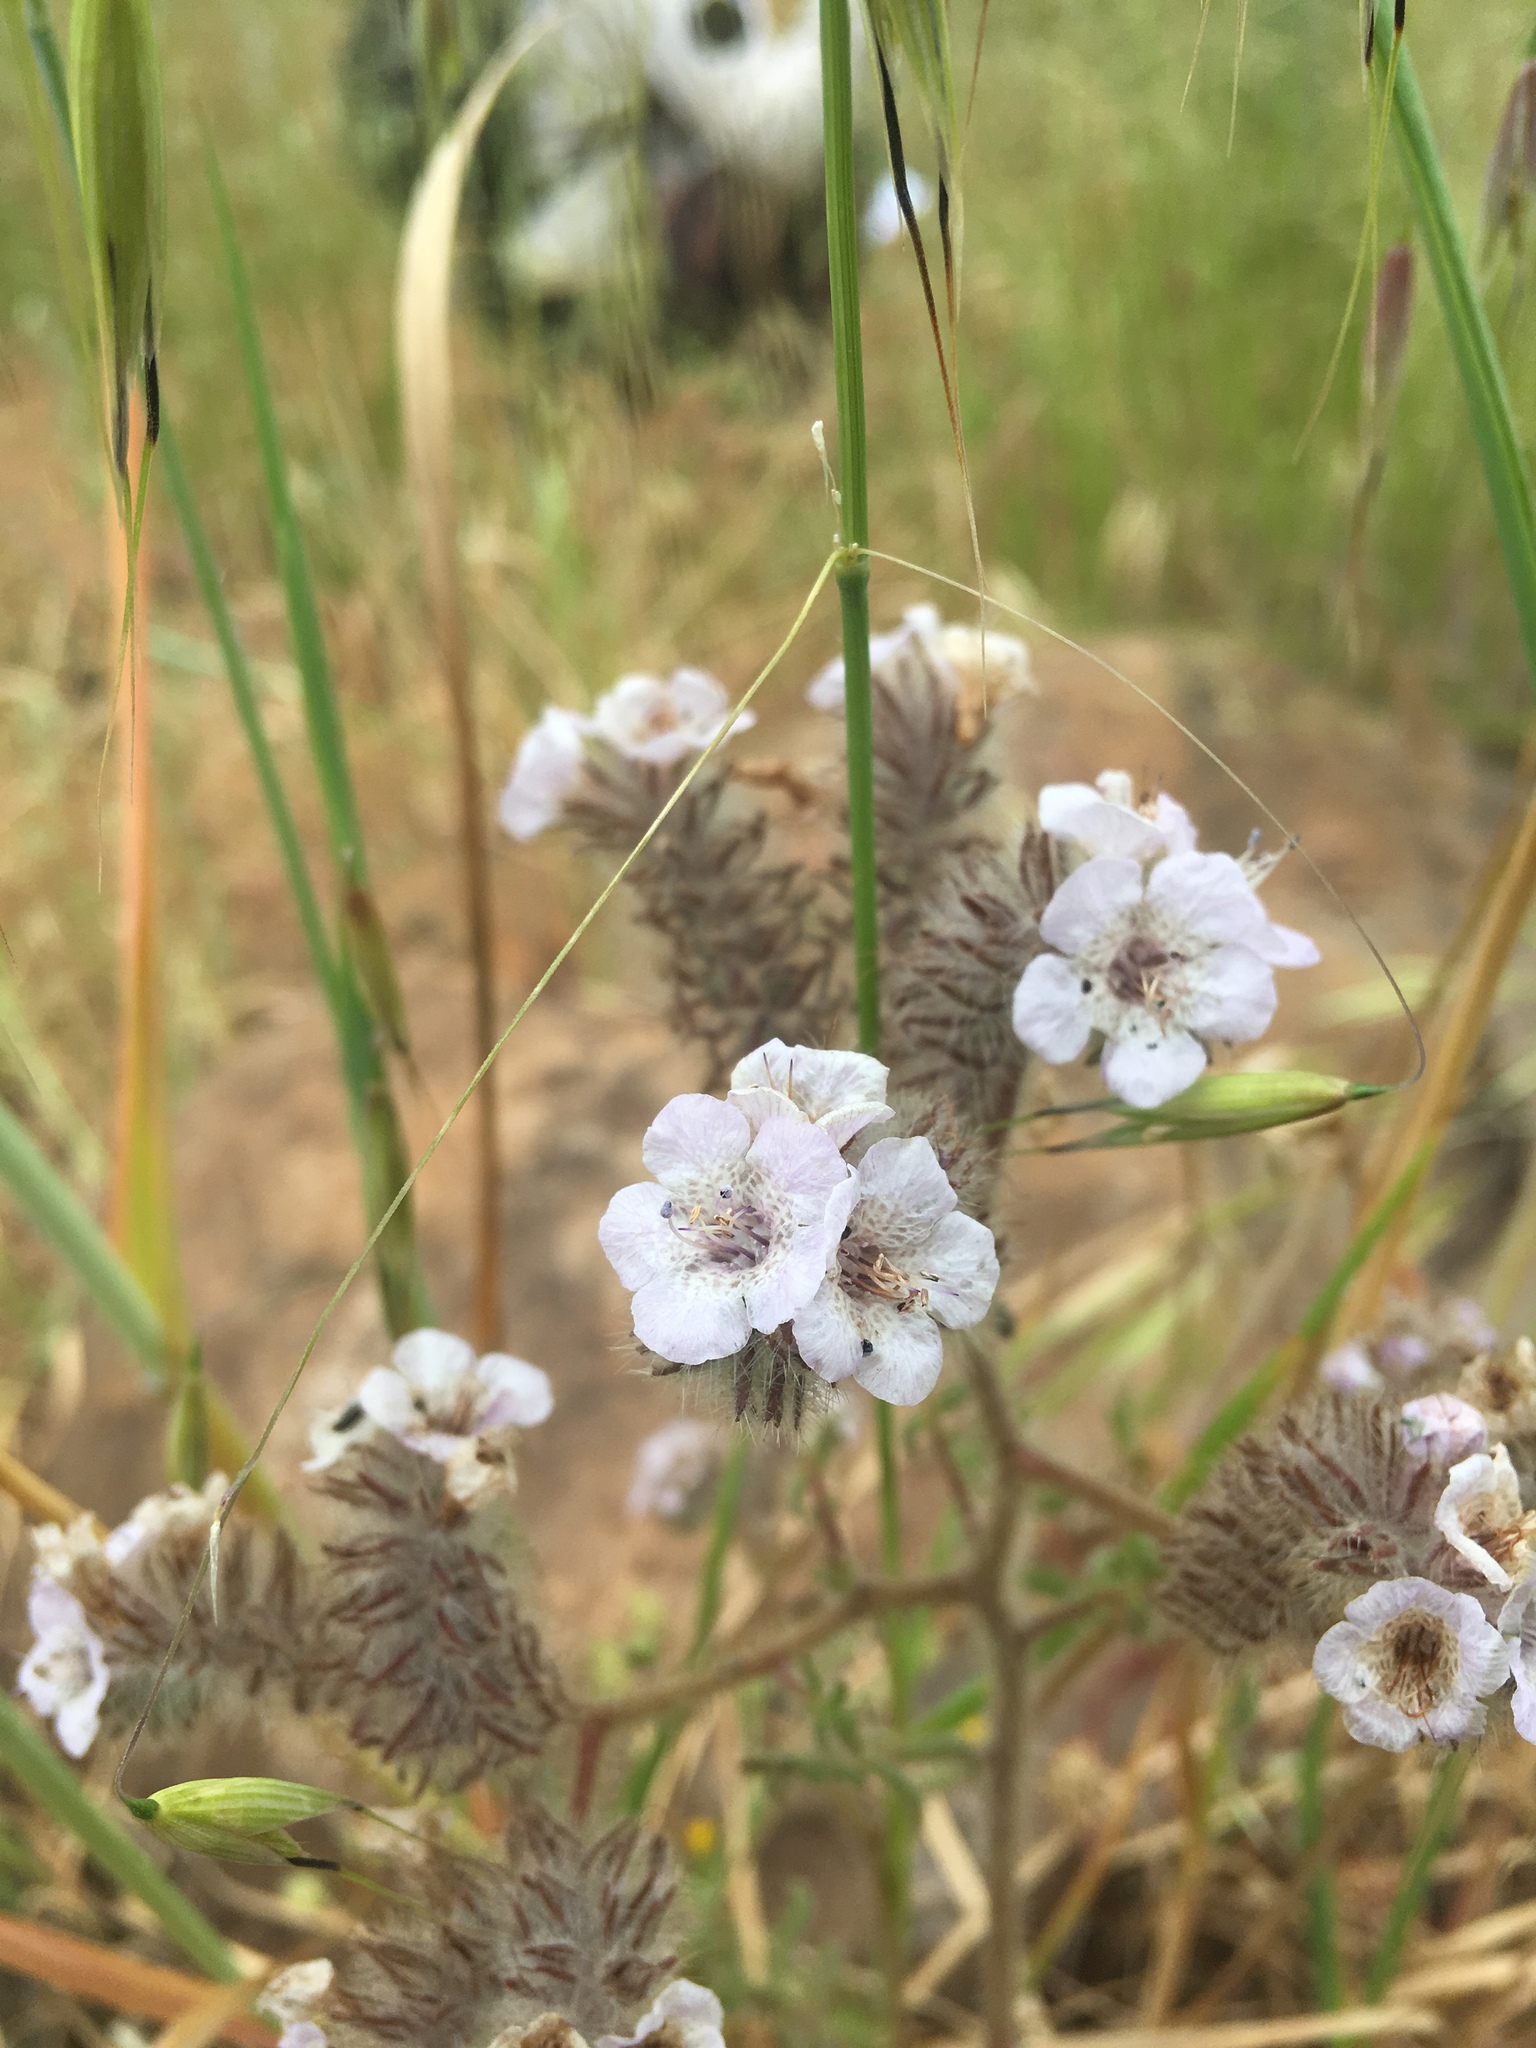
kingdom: Plantae
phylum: Tracheophyta
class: Magnoliopsida
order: Boraginales
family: Hydrophyllaceae
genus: Phacelia
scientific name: Phacelia cicutaria
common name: Caterpillar phacelia
